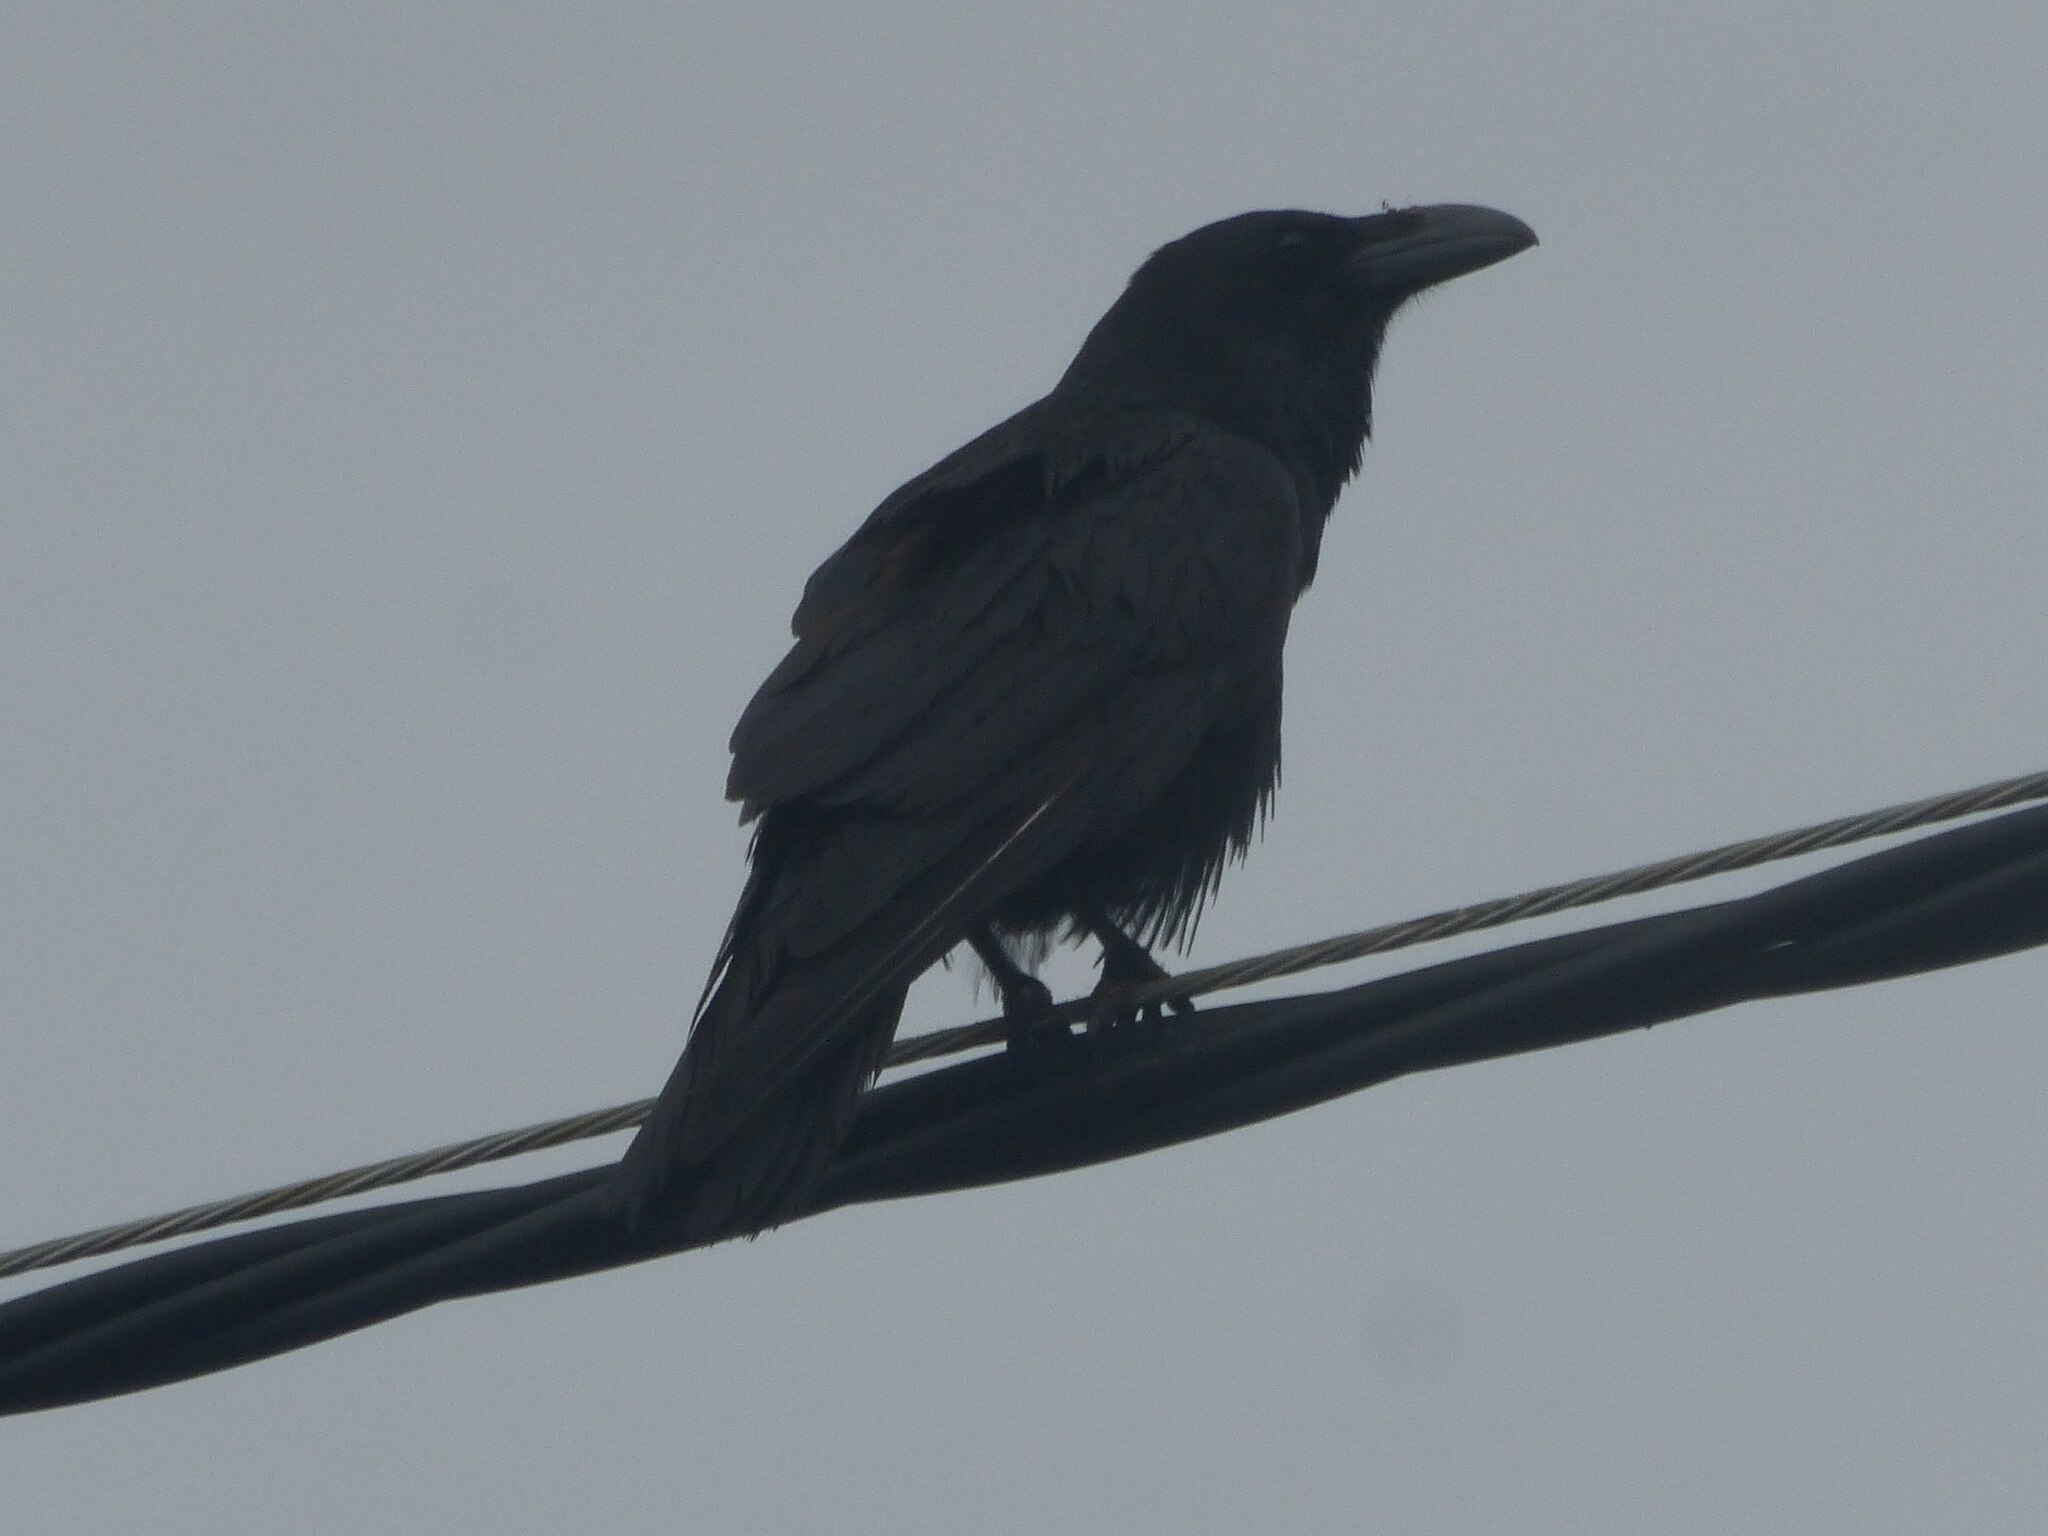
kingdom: Animalia
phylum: Chordata
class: Aves
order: Passeriformes
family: Corvidae
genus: Corvus
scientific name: Corvus corax
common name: Common raven
